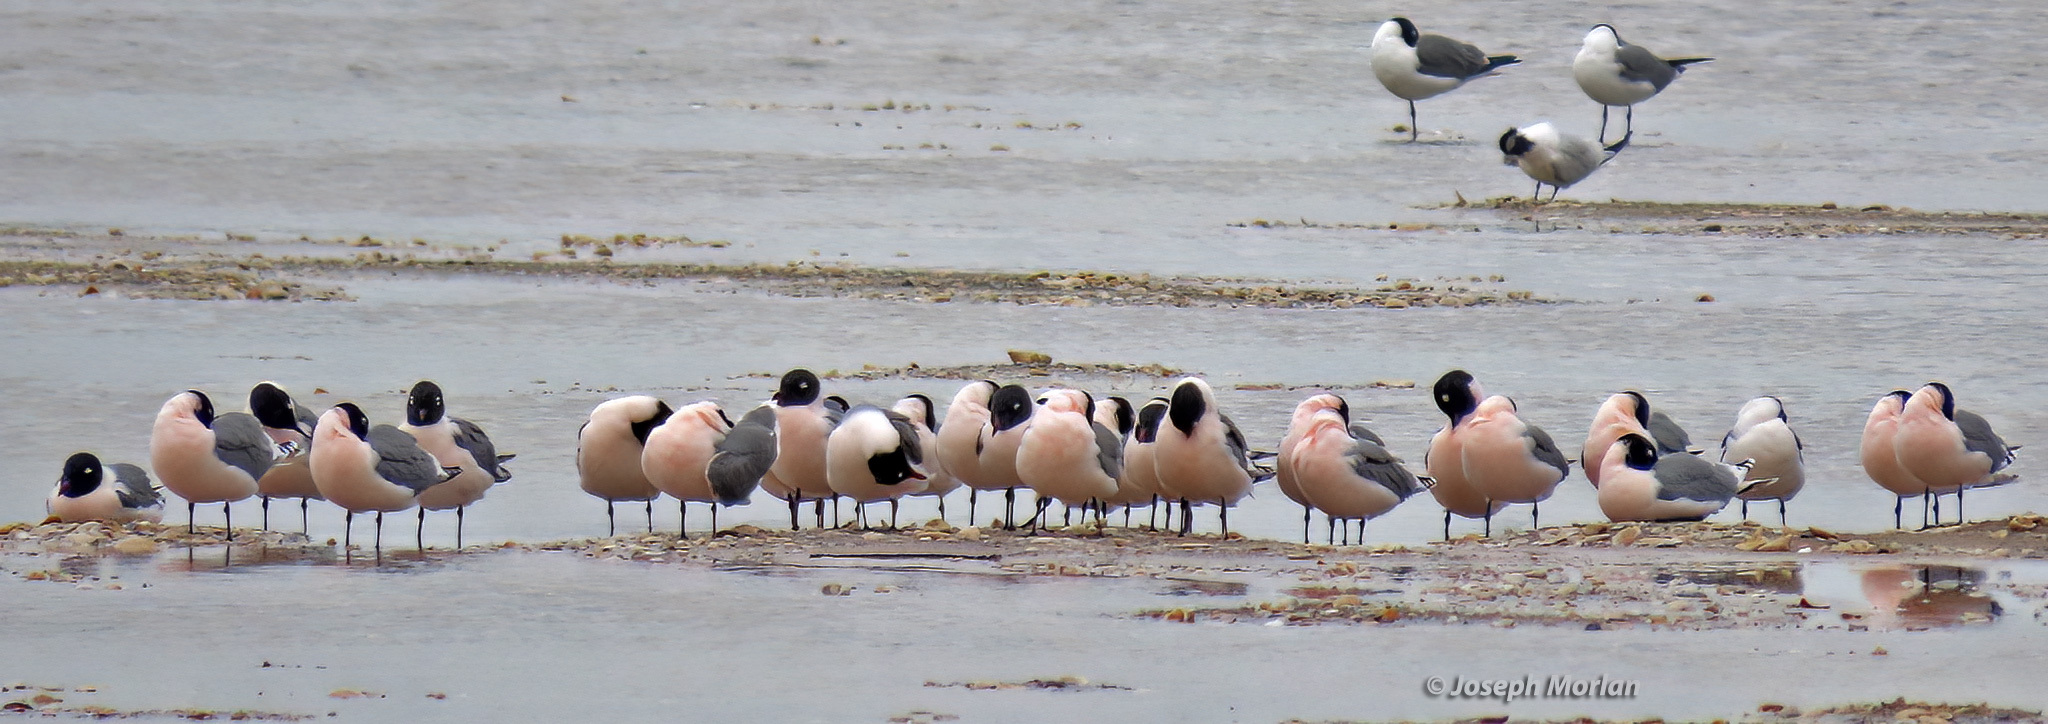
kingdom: Animalia
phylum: Chordata
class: Aves
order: Charadriiformes
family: Laridae
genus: Leucophaeus
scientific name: Leucophaeus pipixcan
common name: Franklin's gull
